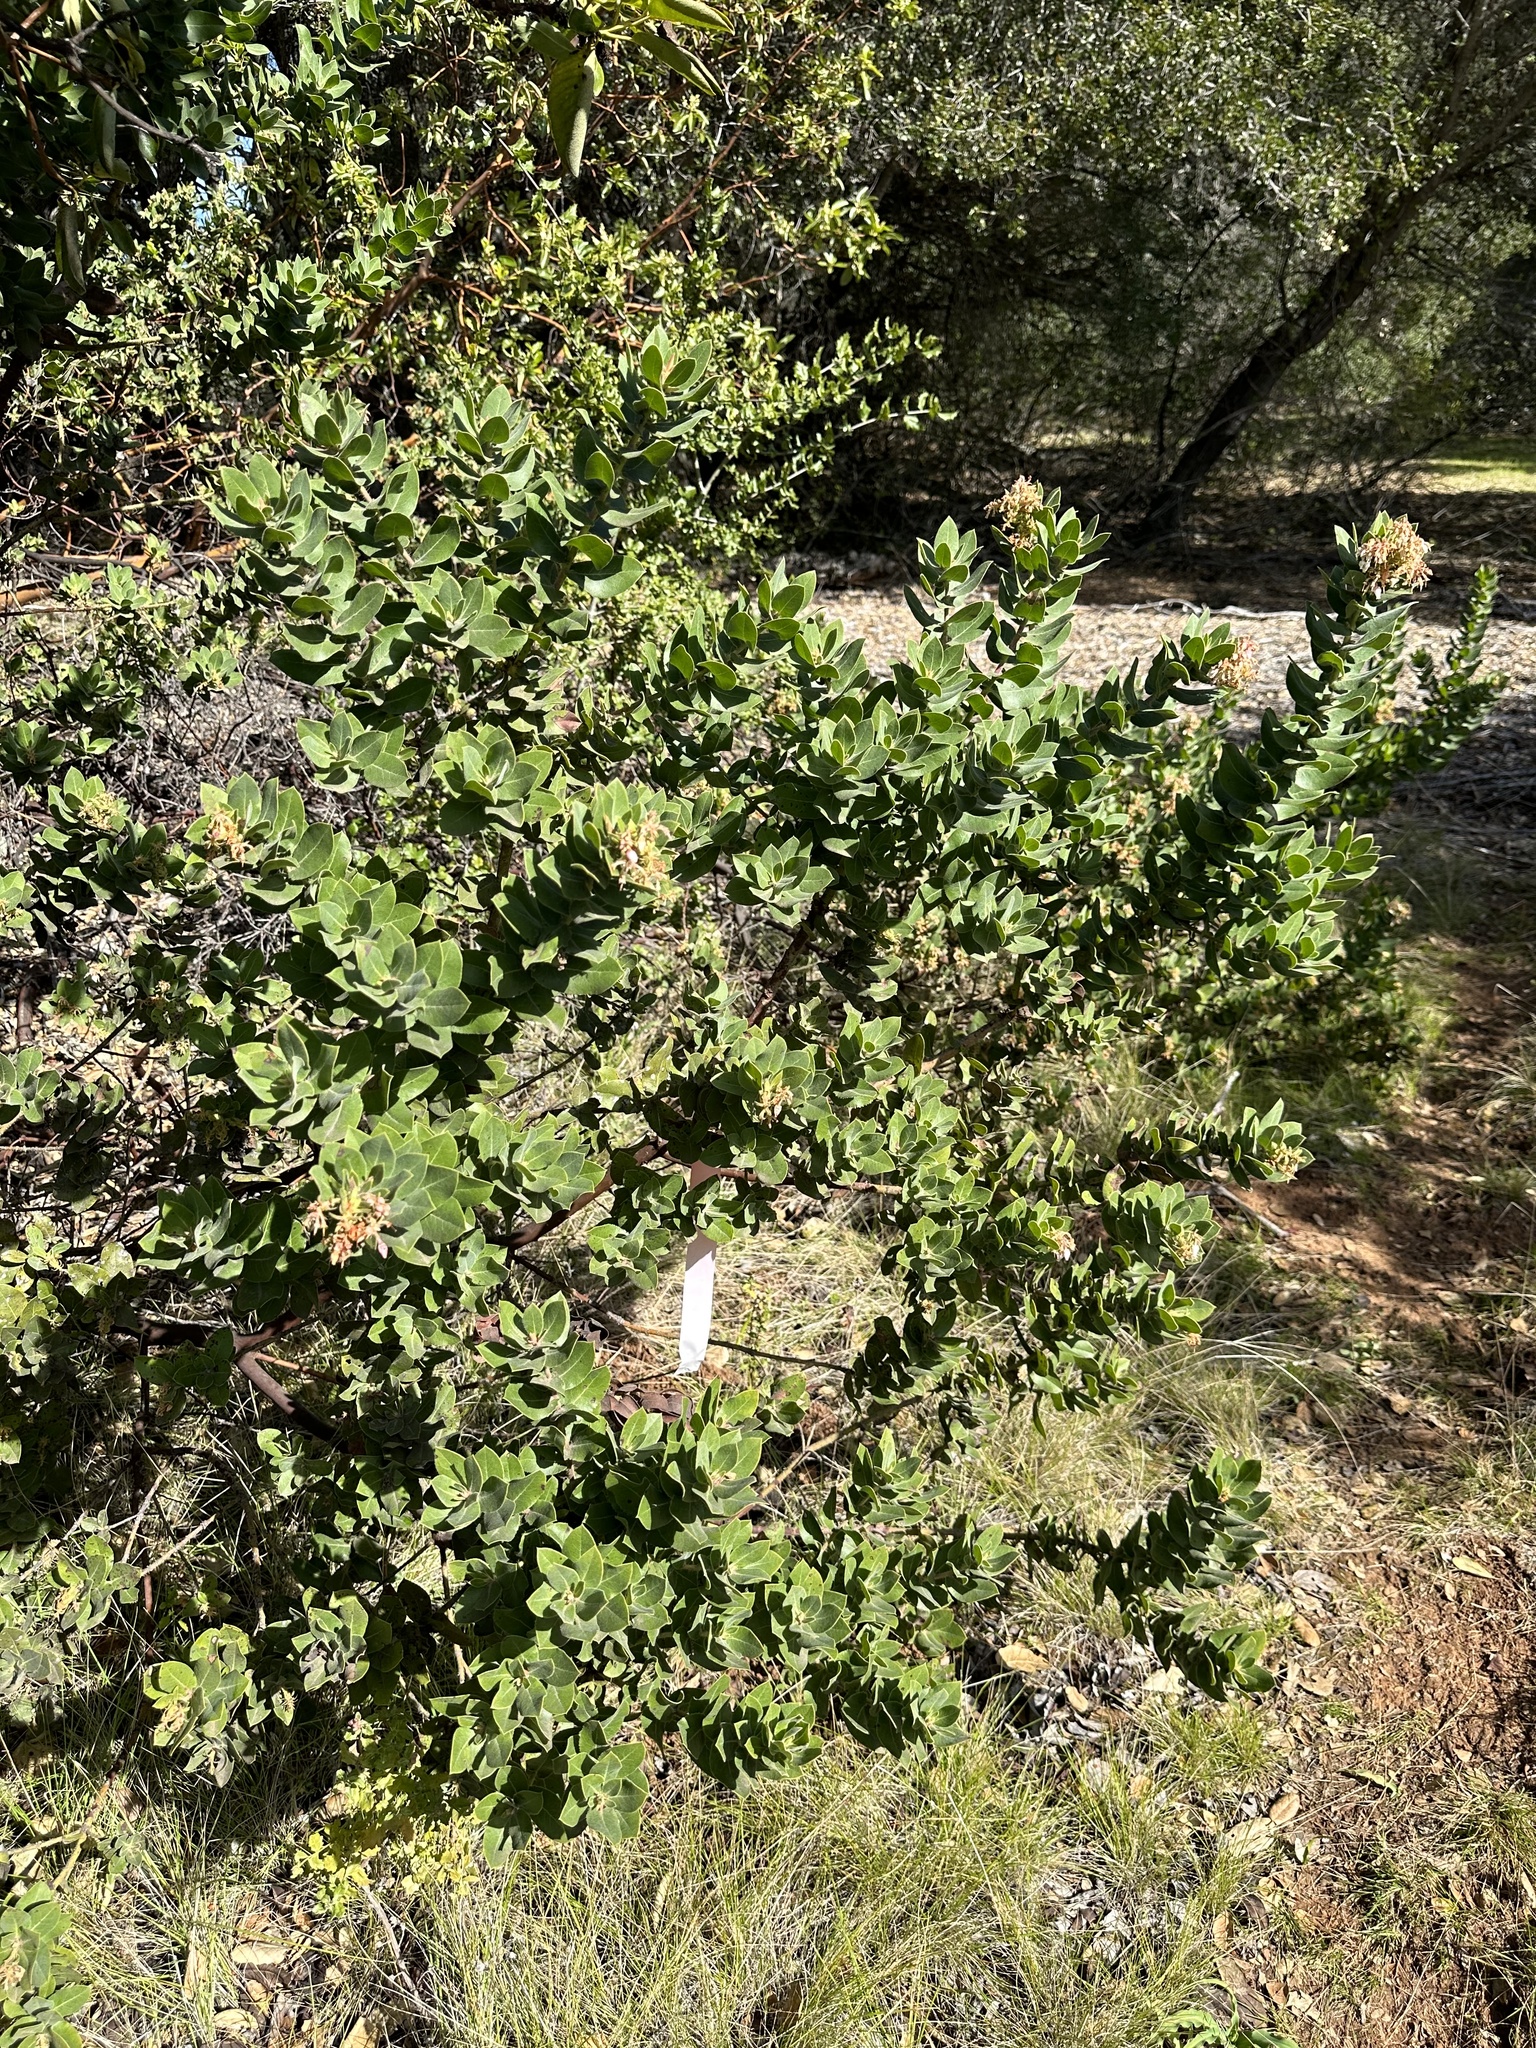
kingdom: Plantae
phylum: Tracheophyta
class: Magnoliopsida
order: Ericales
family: Ericaceae
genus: Arctostaphylos
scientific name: Arctostaphylos regismontana
